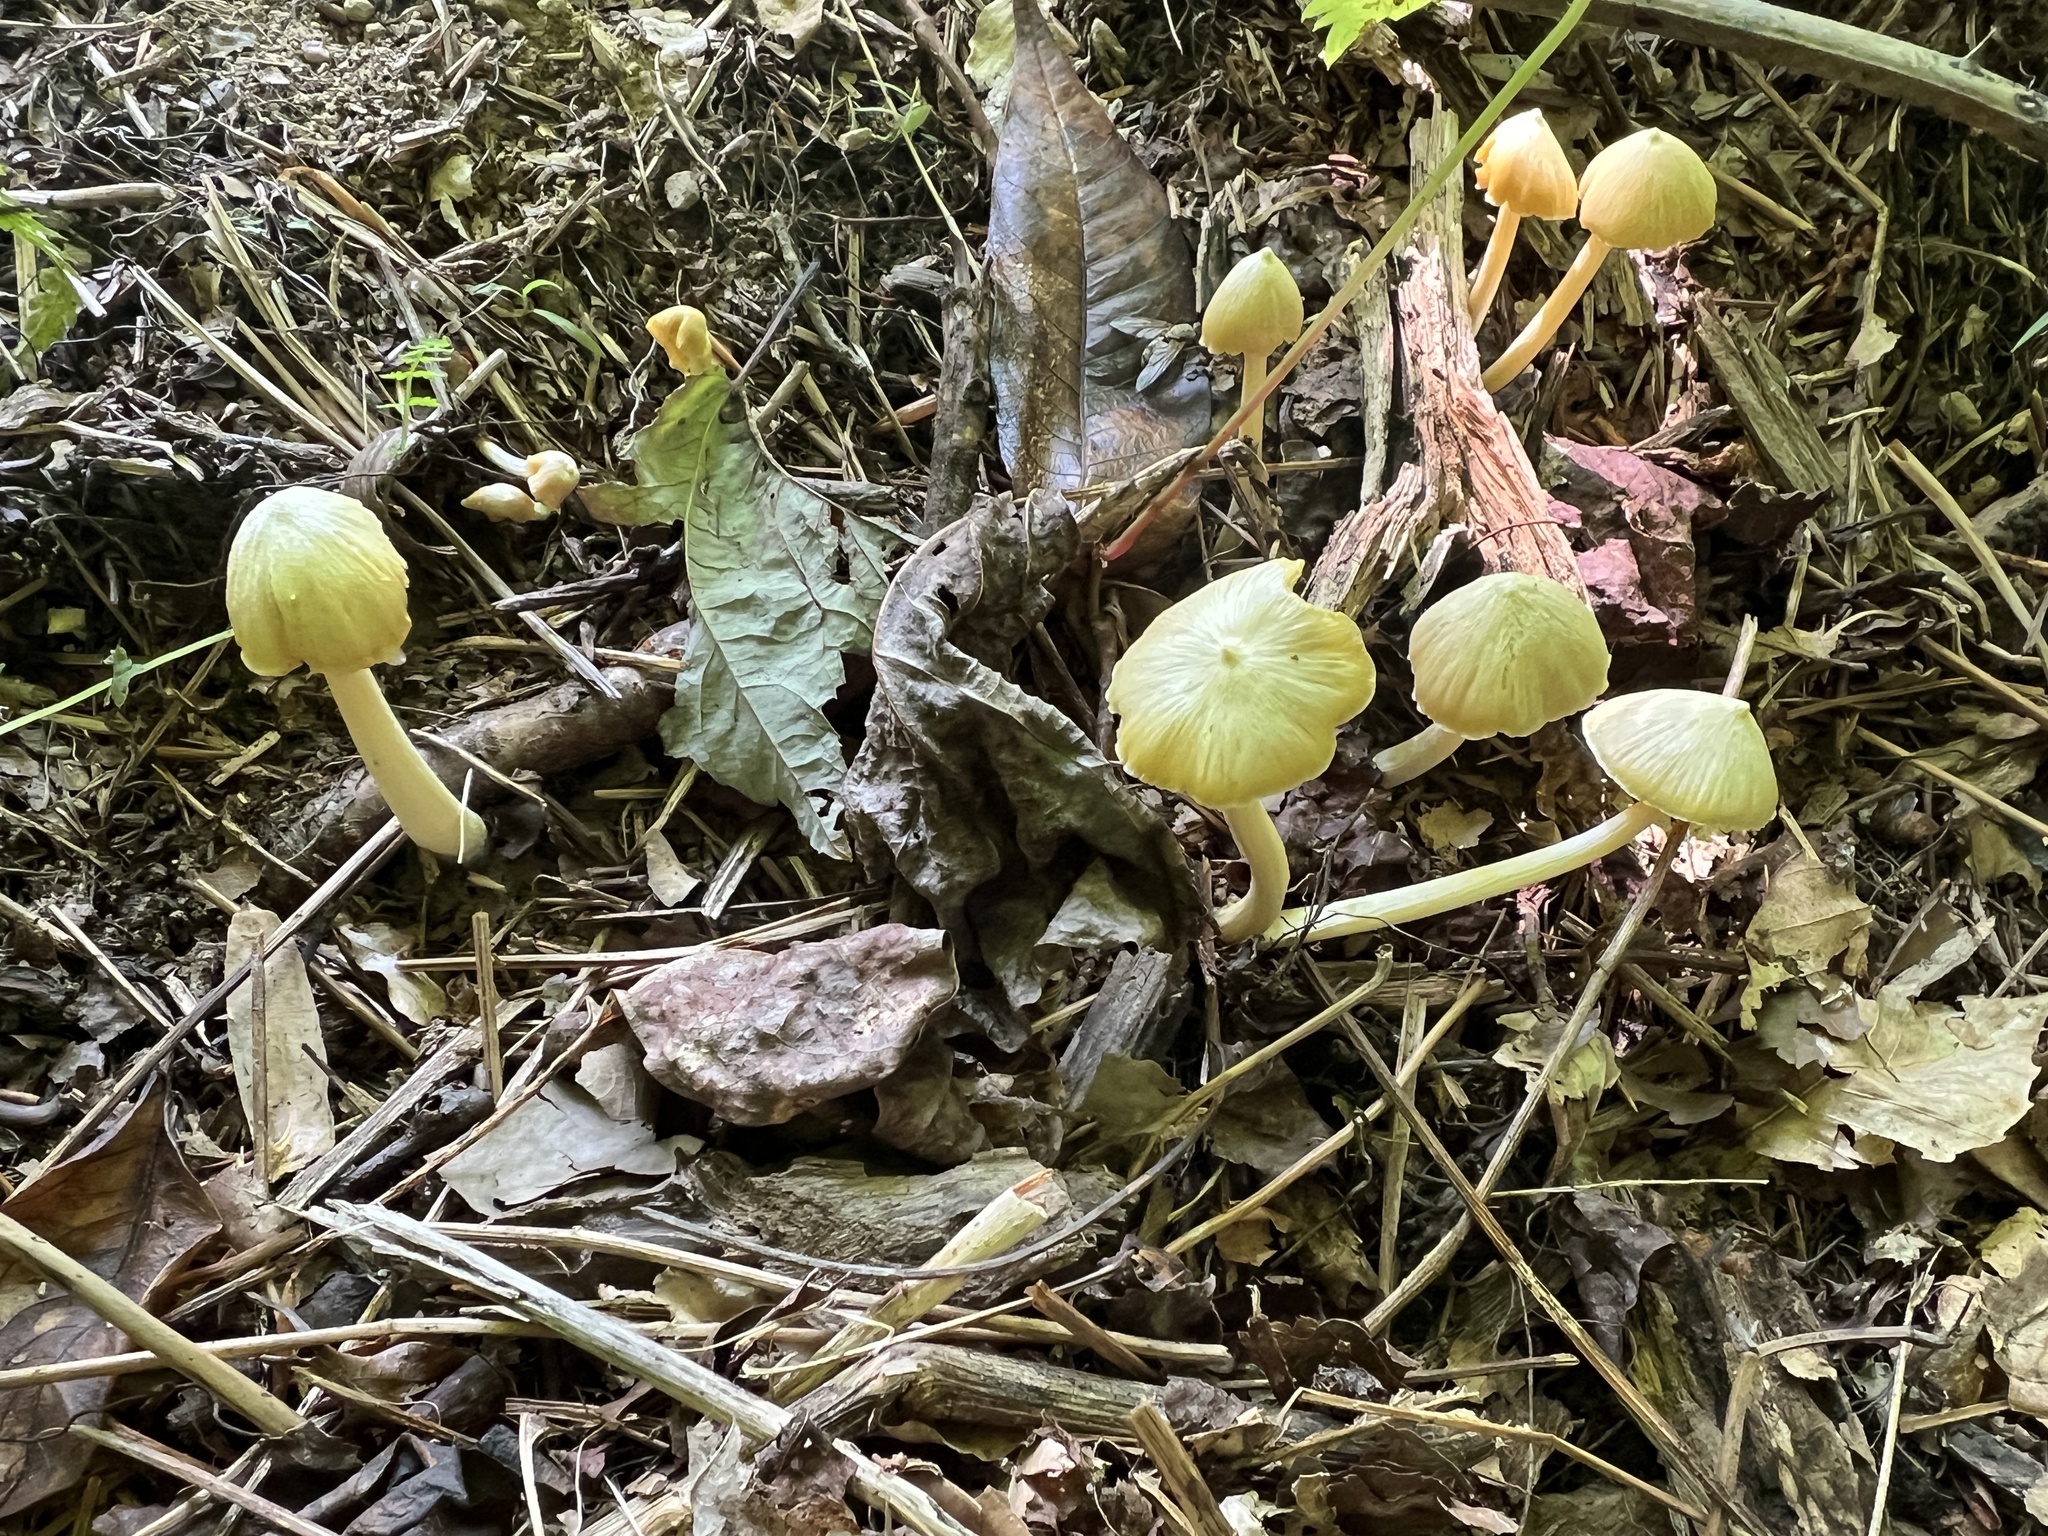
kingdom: Fungi
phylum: Basidiomycota
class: Agaricomycetes
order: Agaricales
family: Entolomataceae
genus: Entoloma
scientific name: Entoloma murrayi
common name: Yellow unicorn entoloma
